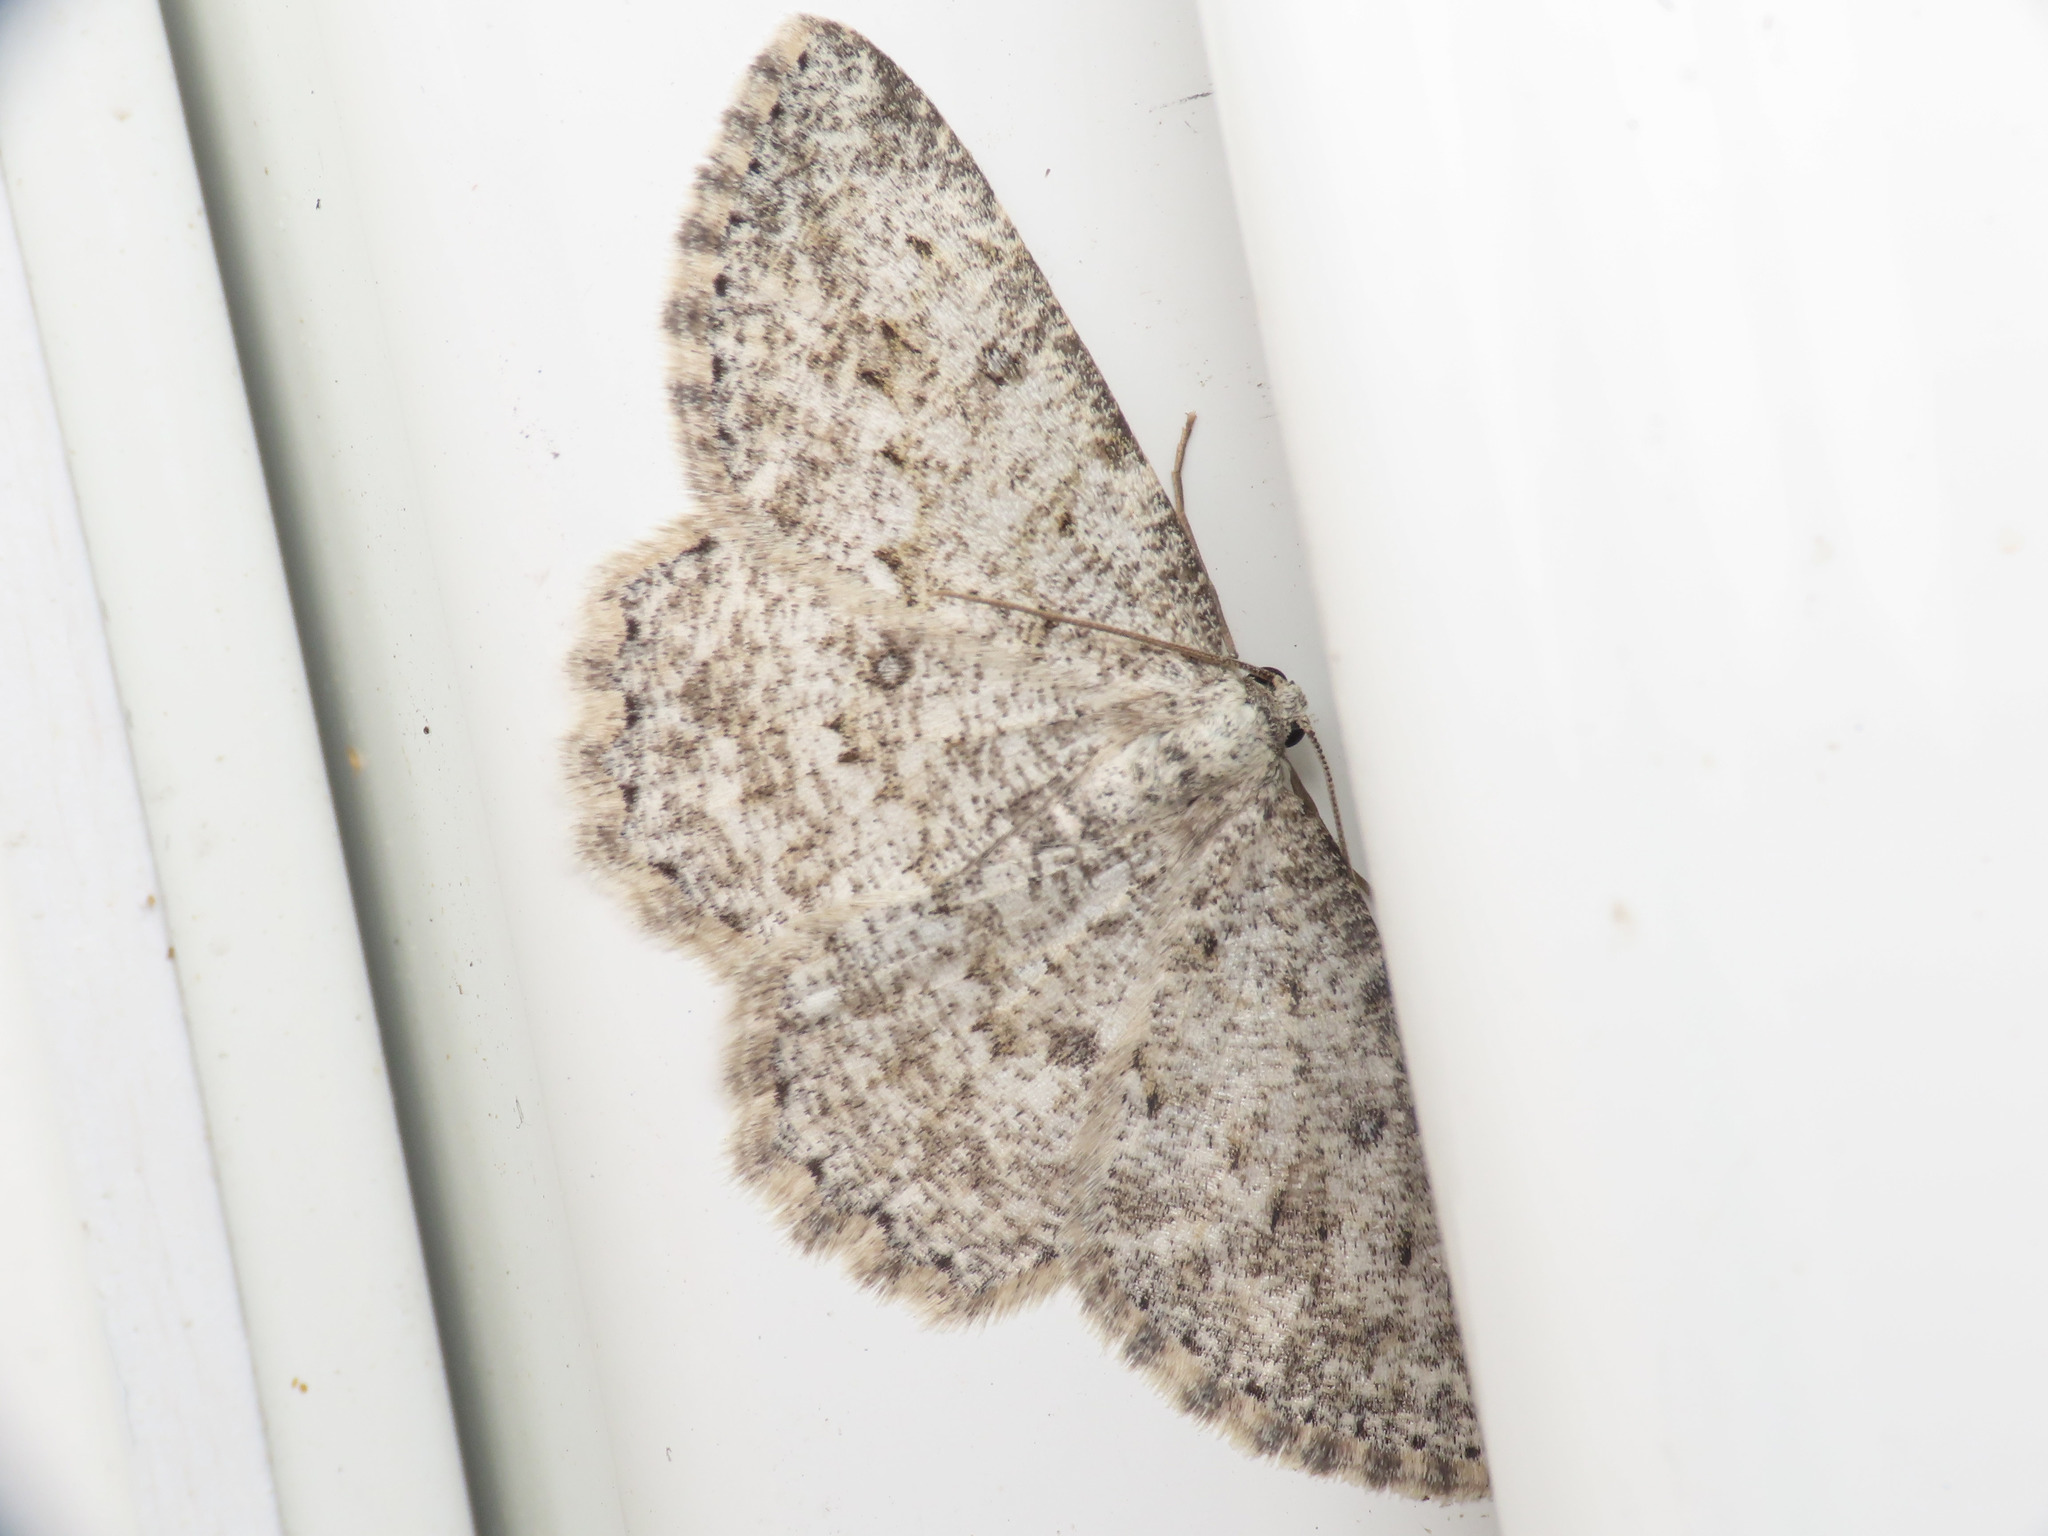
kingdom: Animalia
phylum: Arthropoda
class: Insecta
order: Lepidoptera
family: Geometridae
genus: Charissa
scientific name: Charissa onustaria
